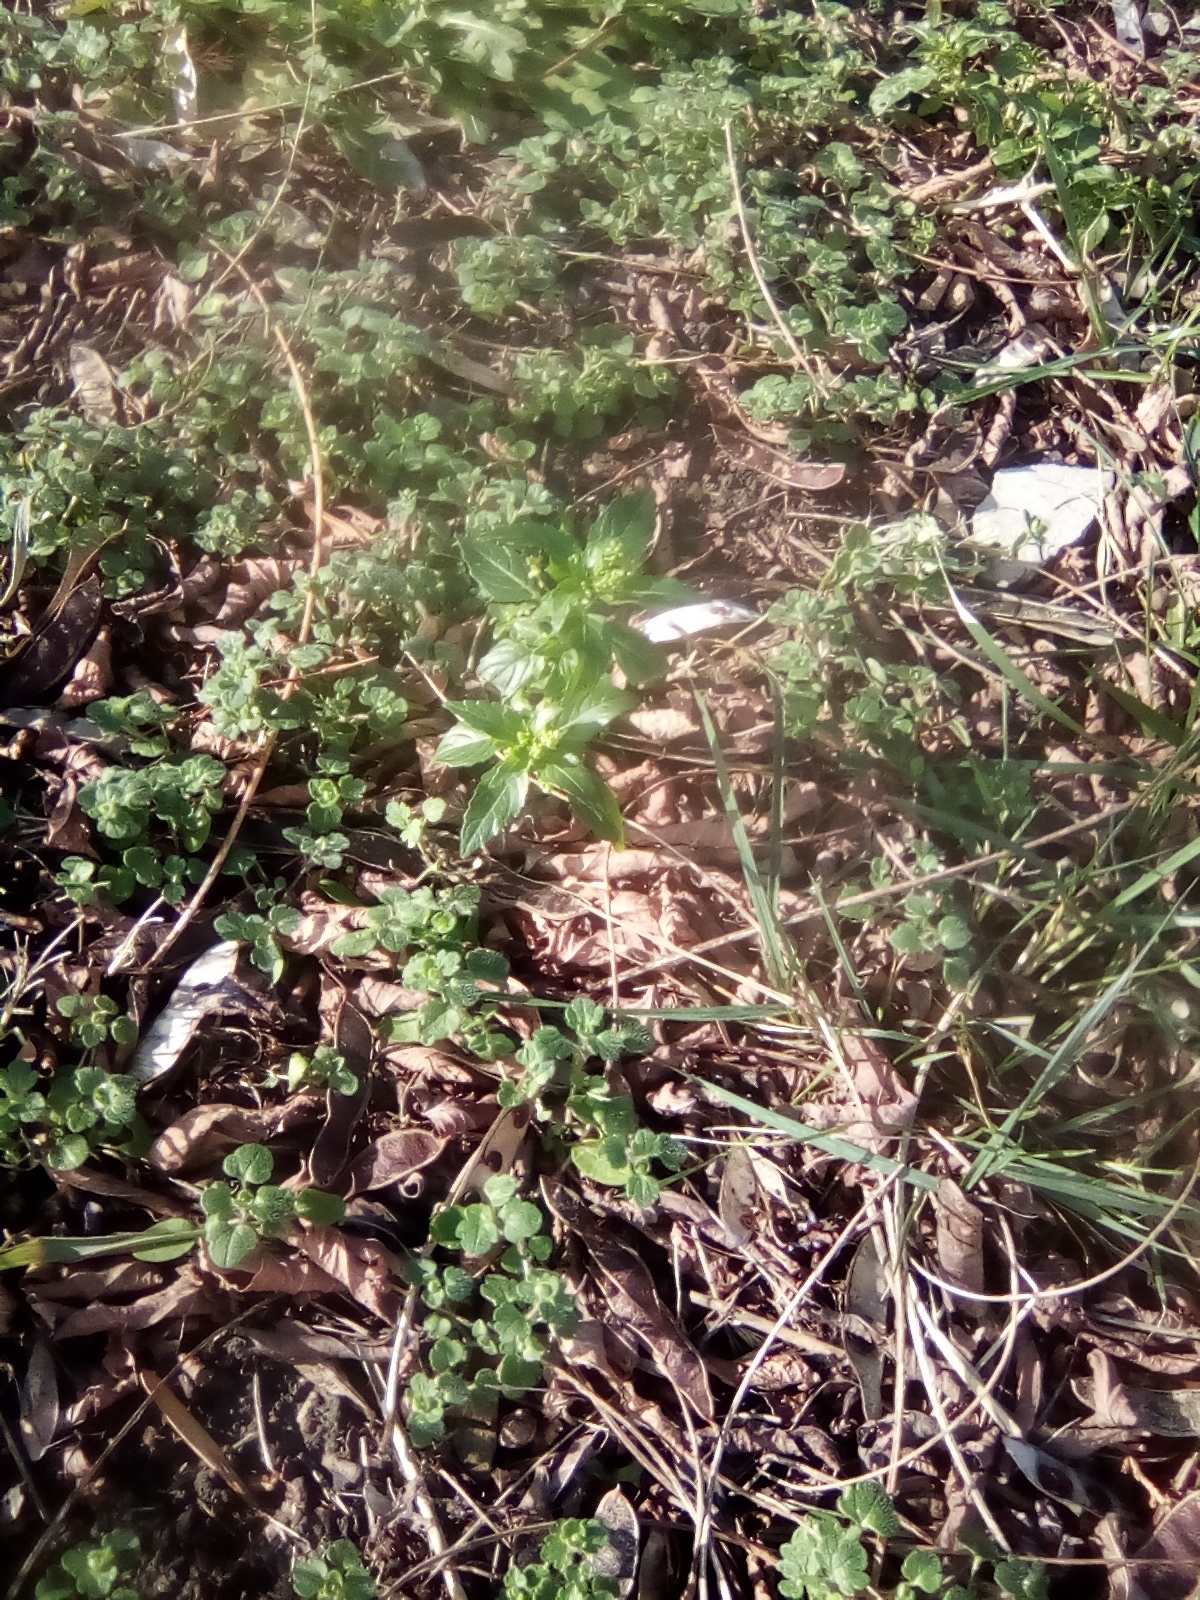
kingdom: Plantae
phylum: Tracheophyta
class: Magnoliopsida
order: Malpighiales
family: Euphorbiaceae
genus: Mercurialis
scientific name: Mercurialis annua
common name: Annual mercury
